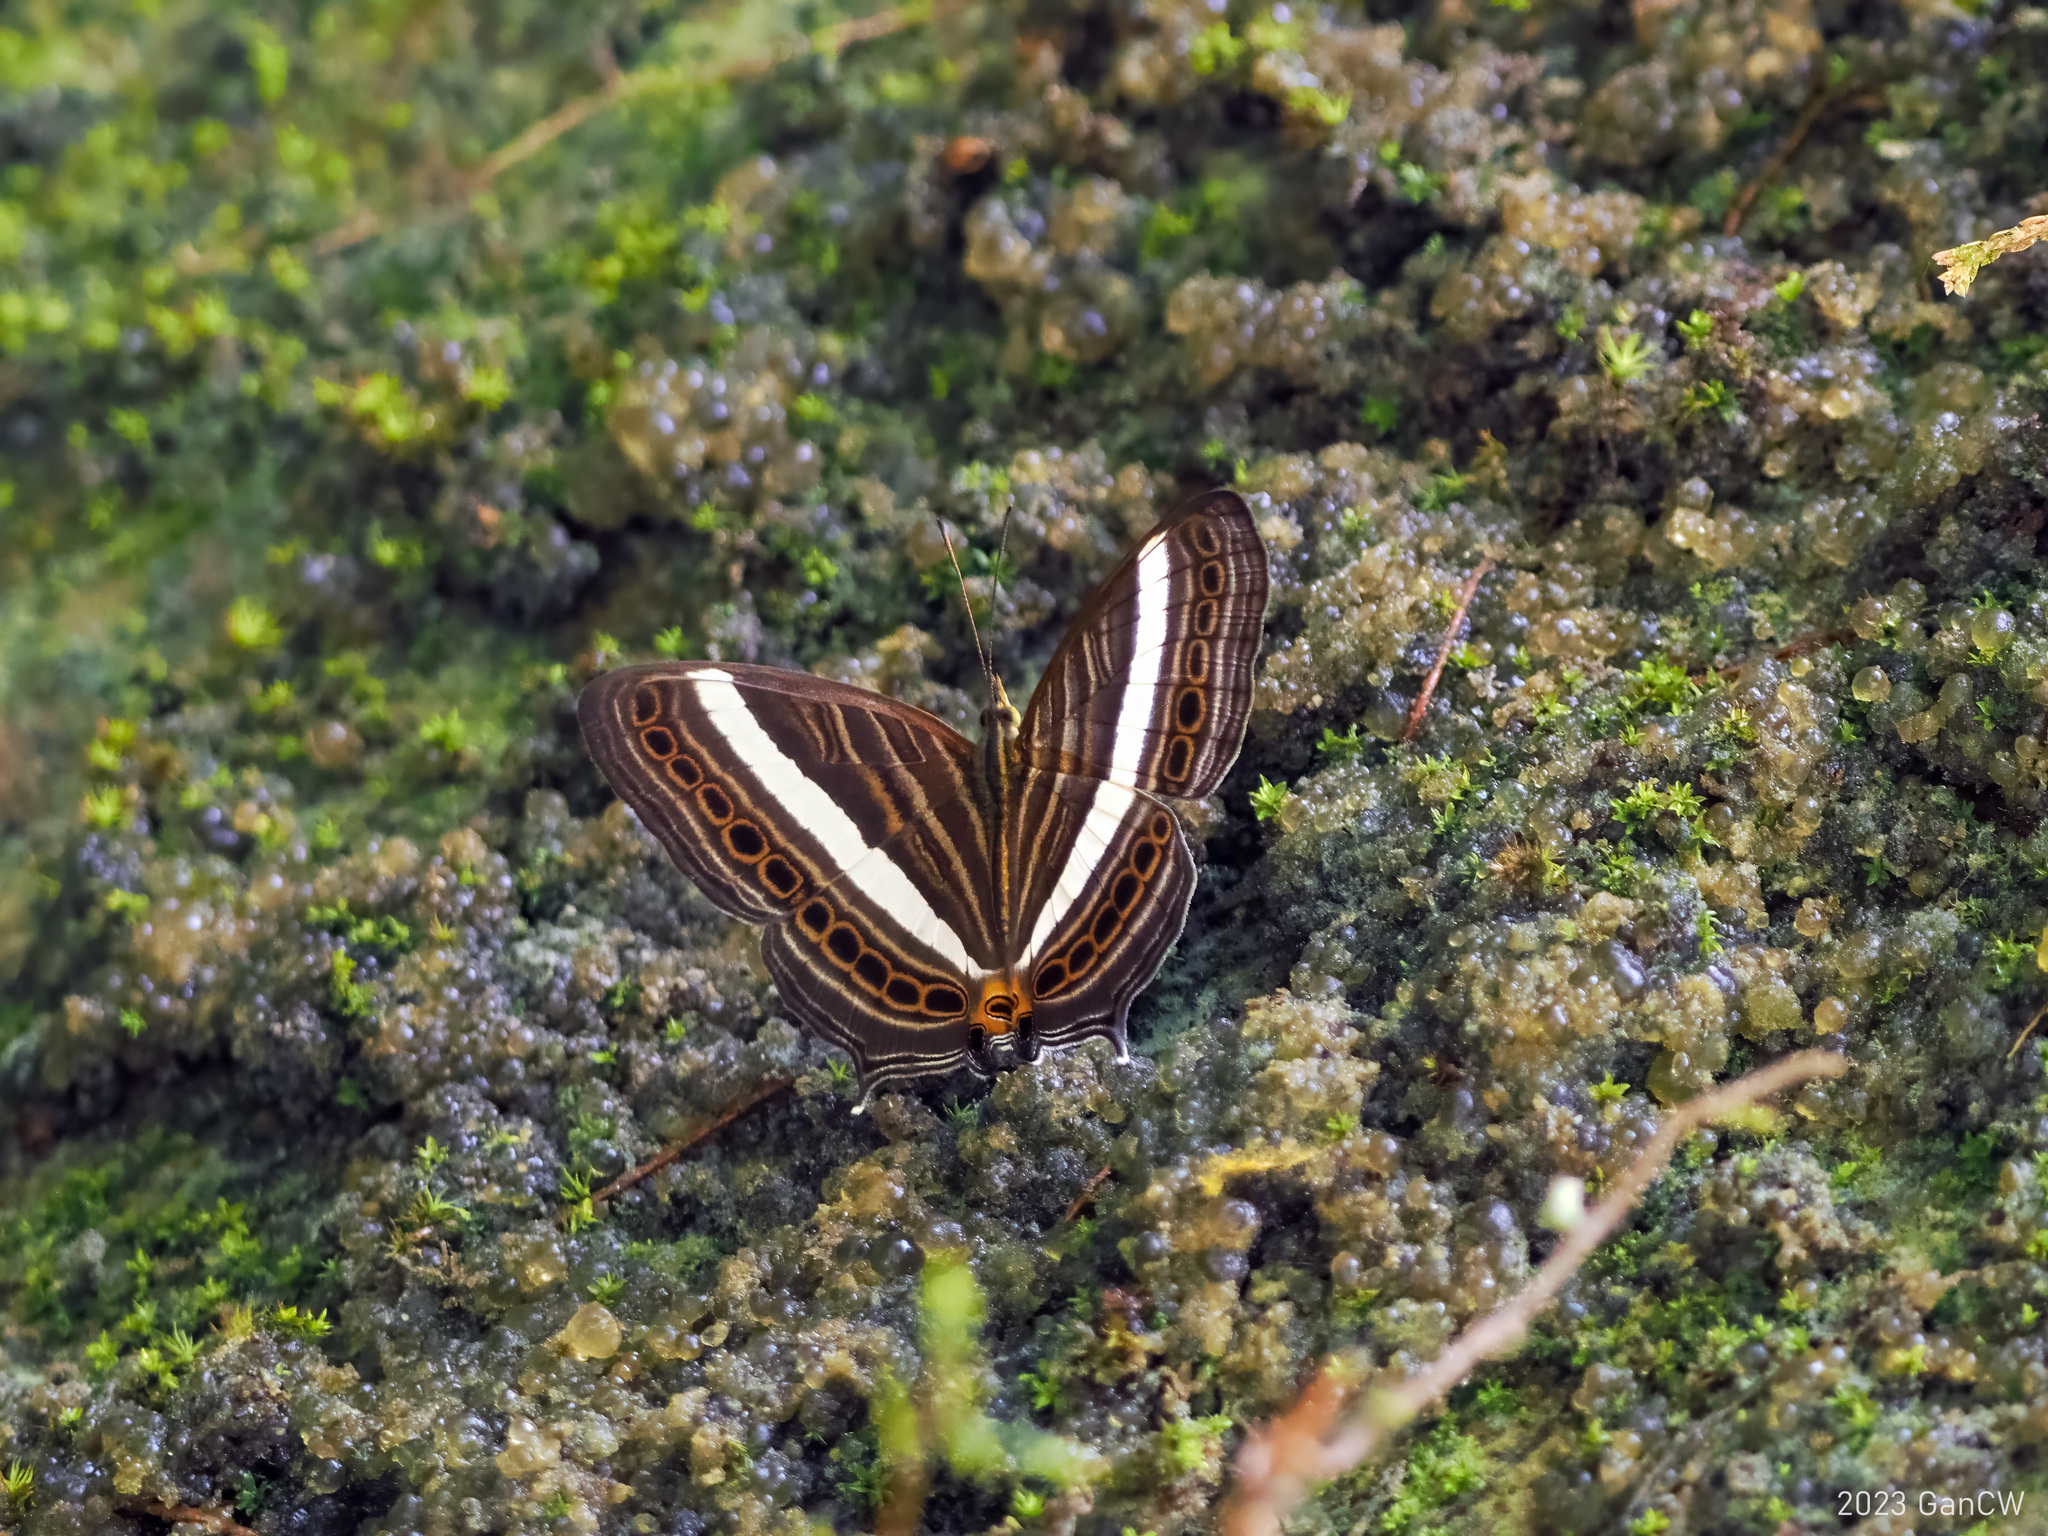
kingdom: Animalia
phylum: Arthropoda
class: Insecta
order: Lepidoptera
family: Nymphalidae
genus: Cyrestis
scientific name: Cyrestis strigata
